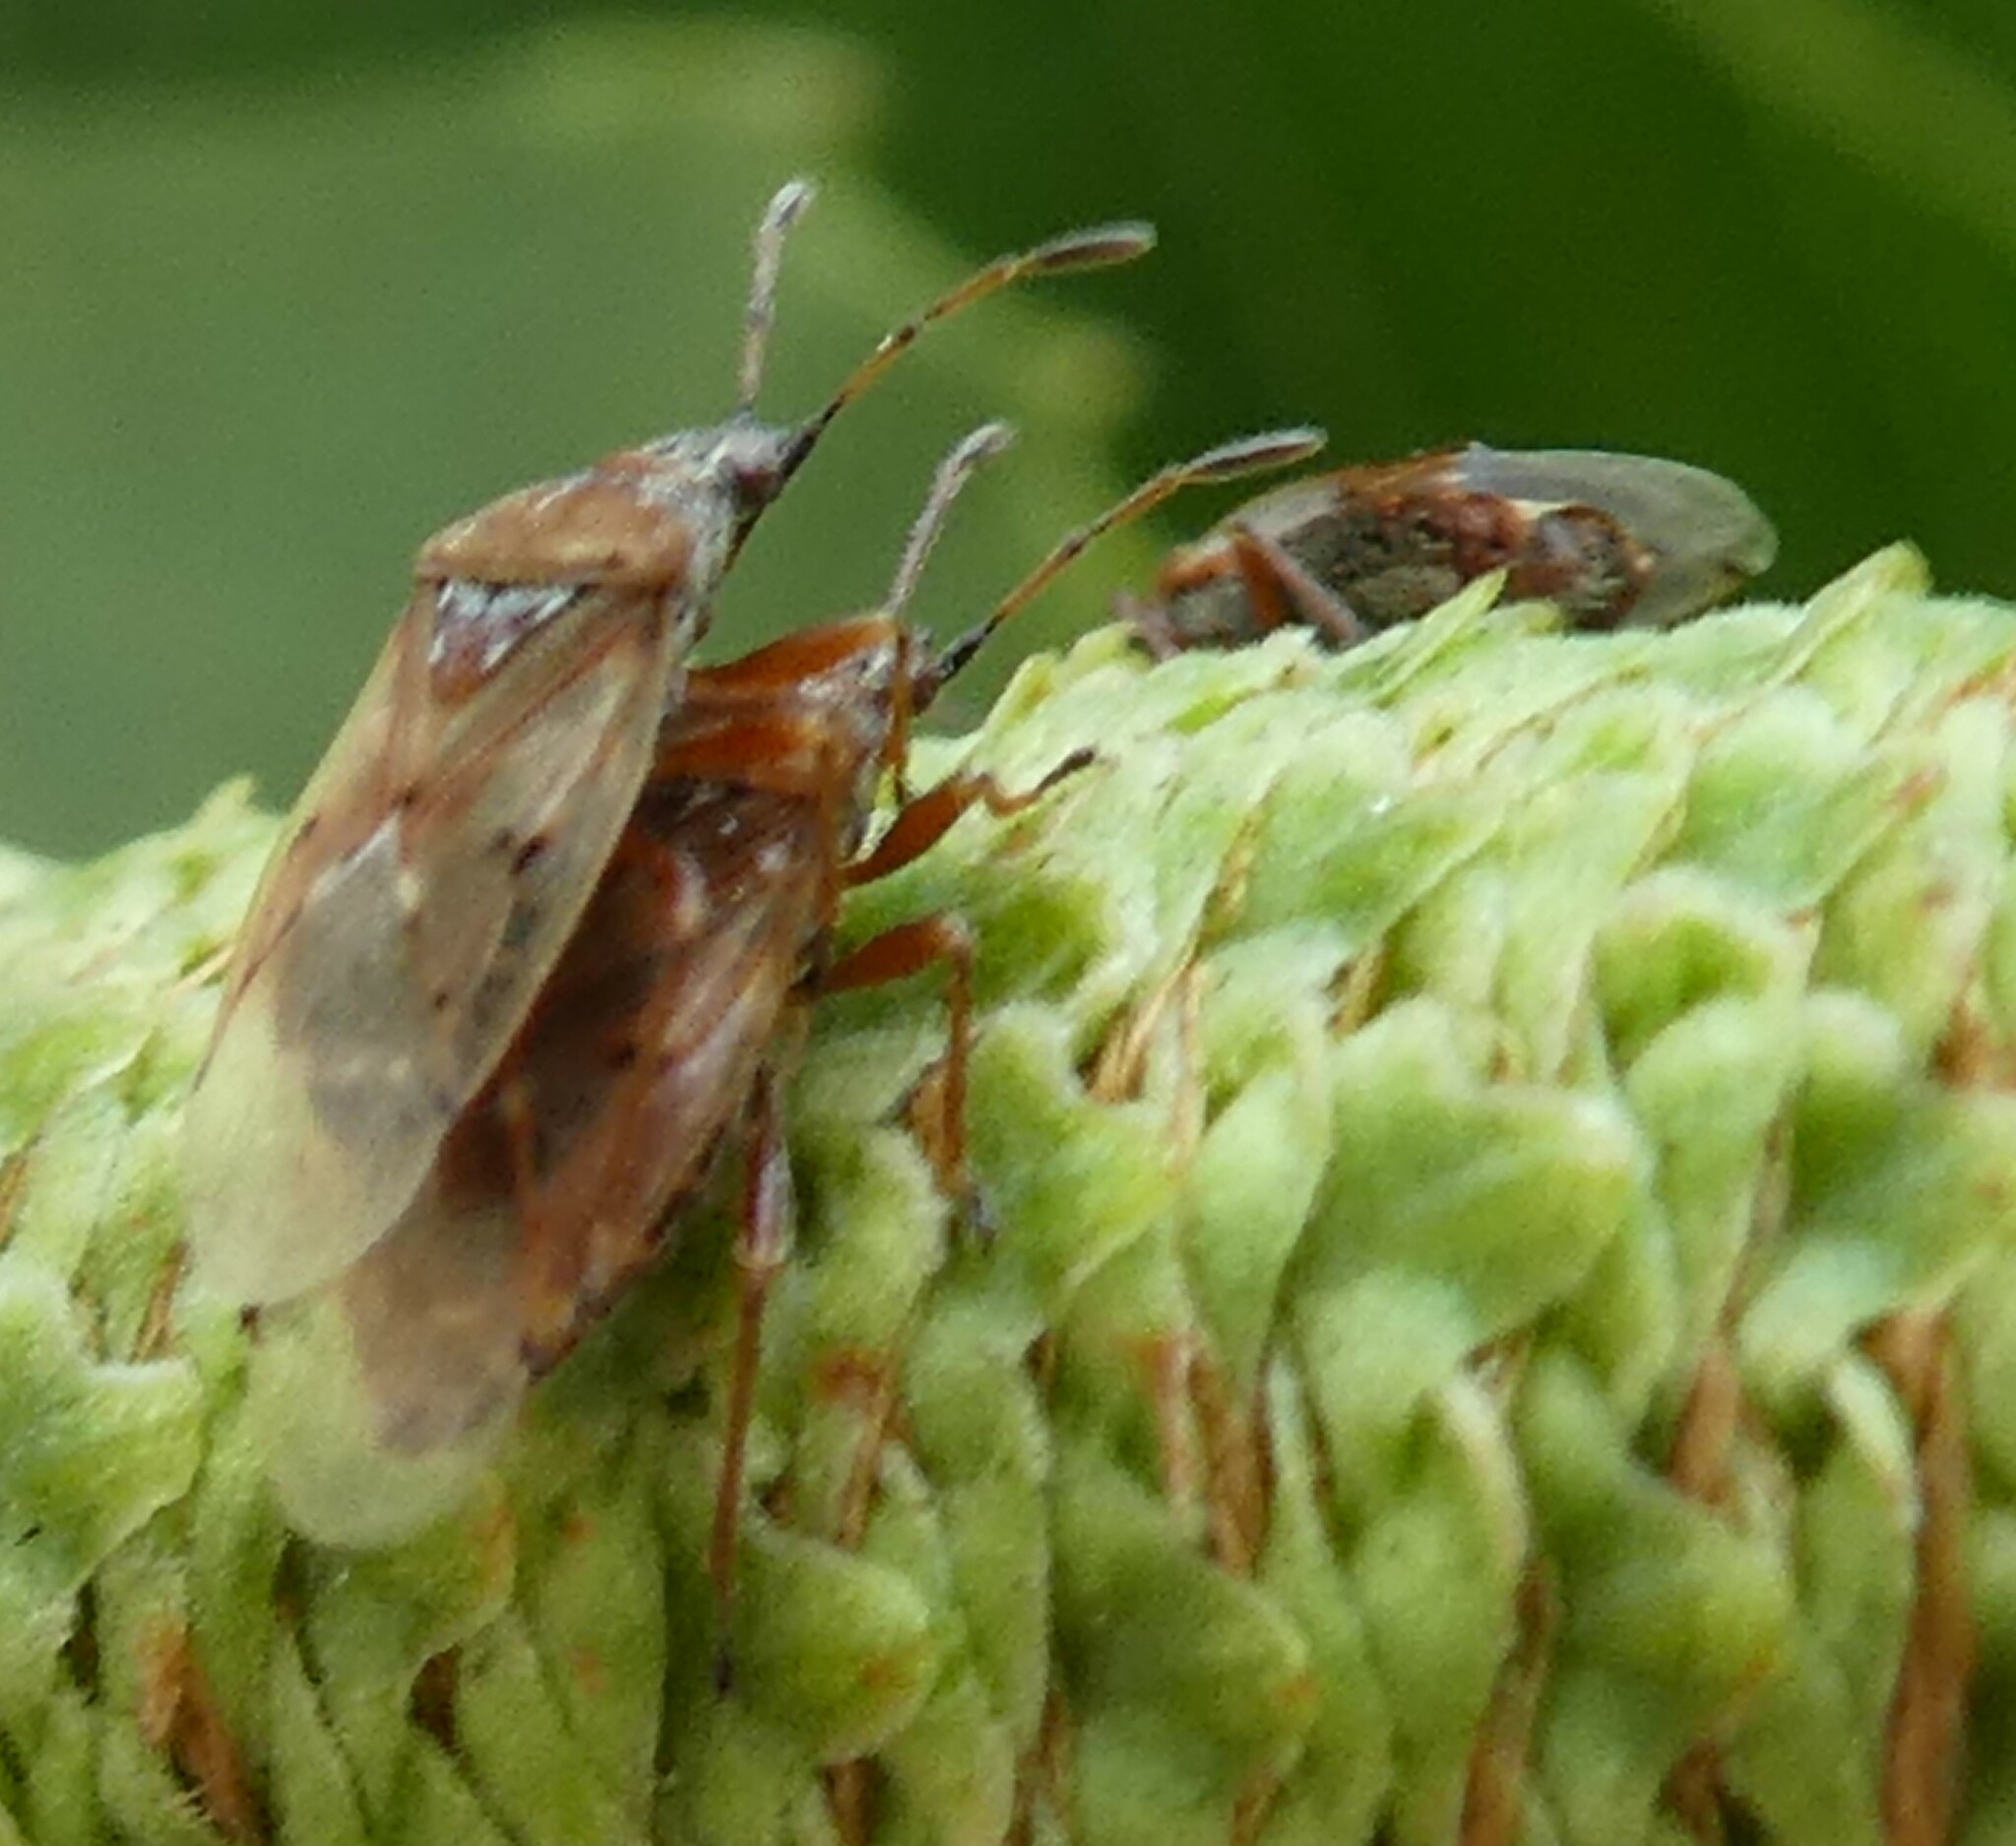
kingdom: Animalia
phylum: Arthropoda
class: Insecta
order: Hemiptera
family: Lygaeidae
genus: Kleidocerys
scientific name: Kleidocerys resedae
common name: Birch catkin bug
